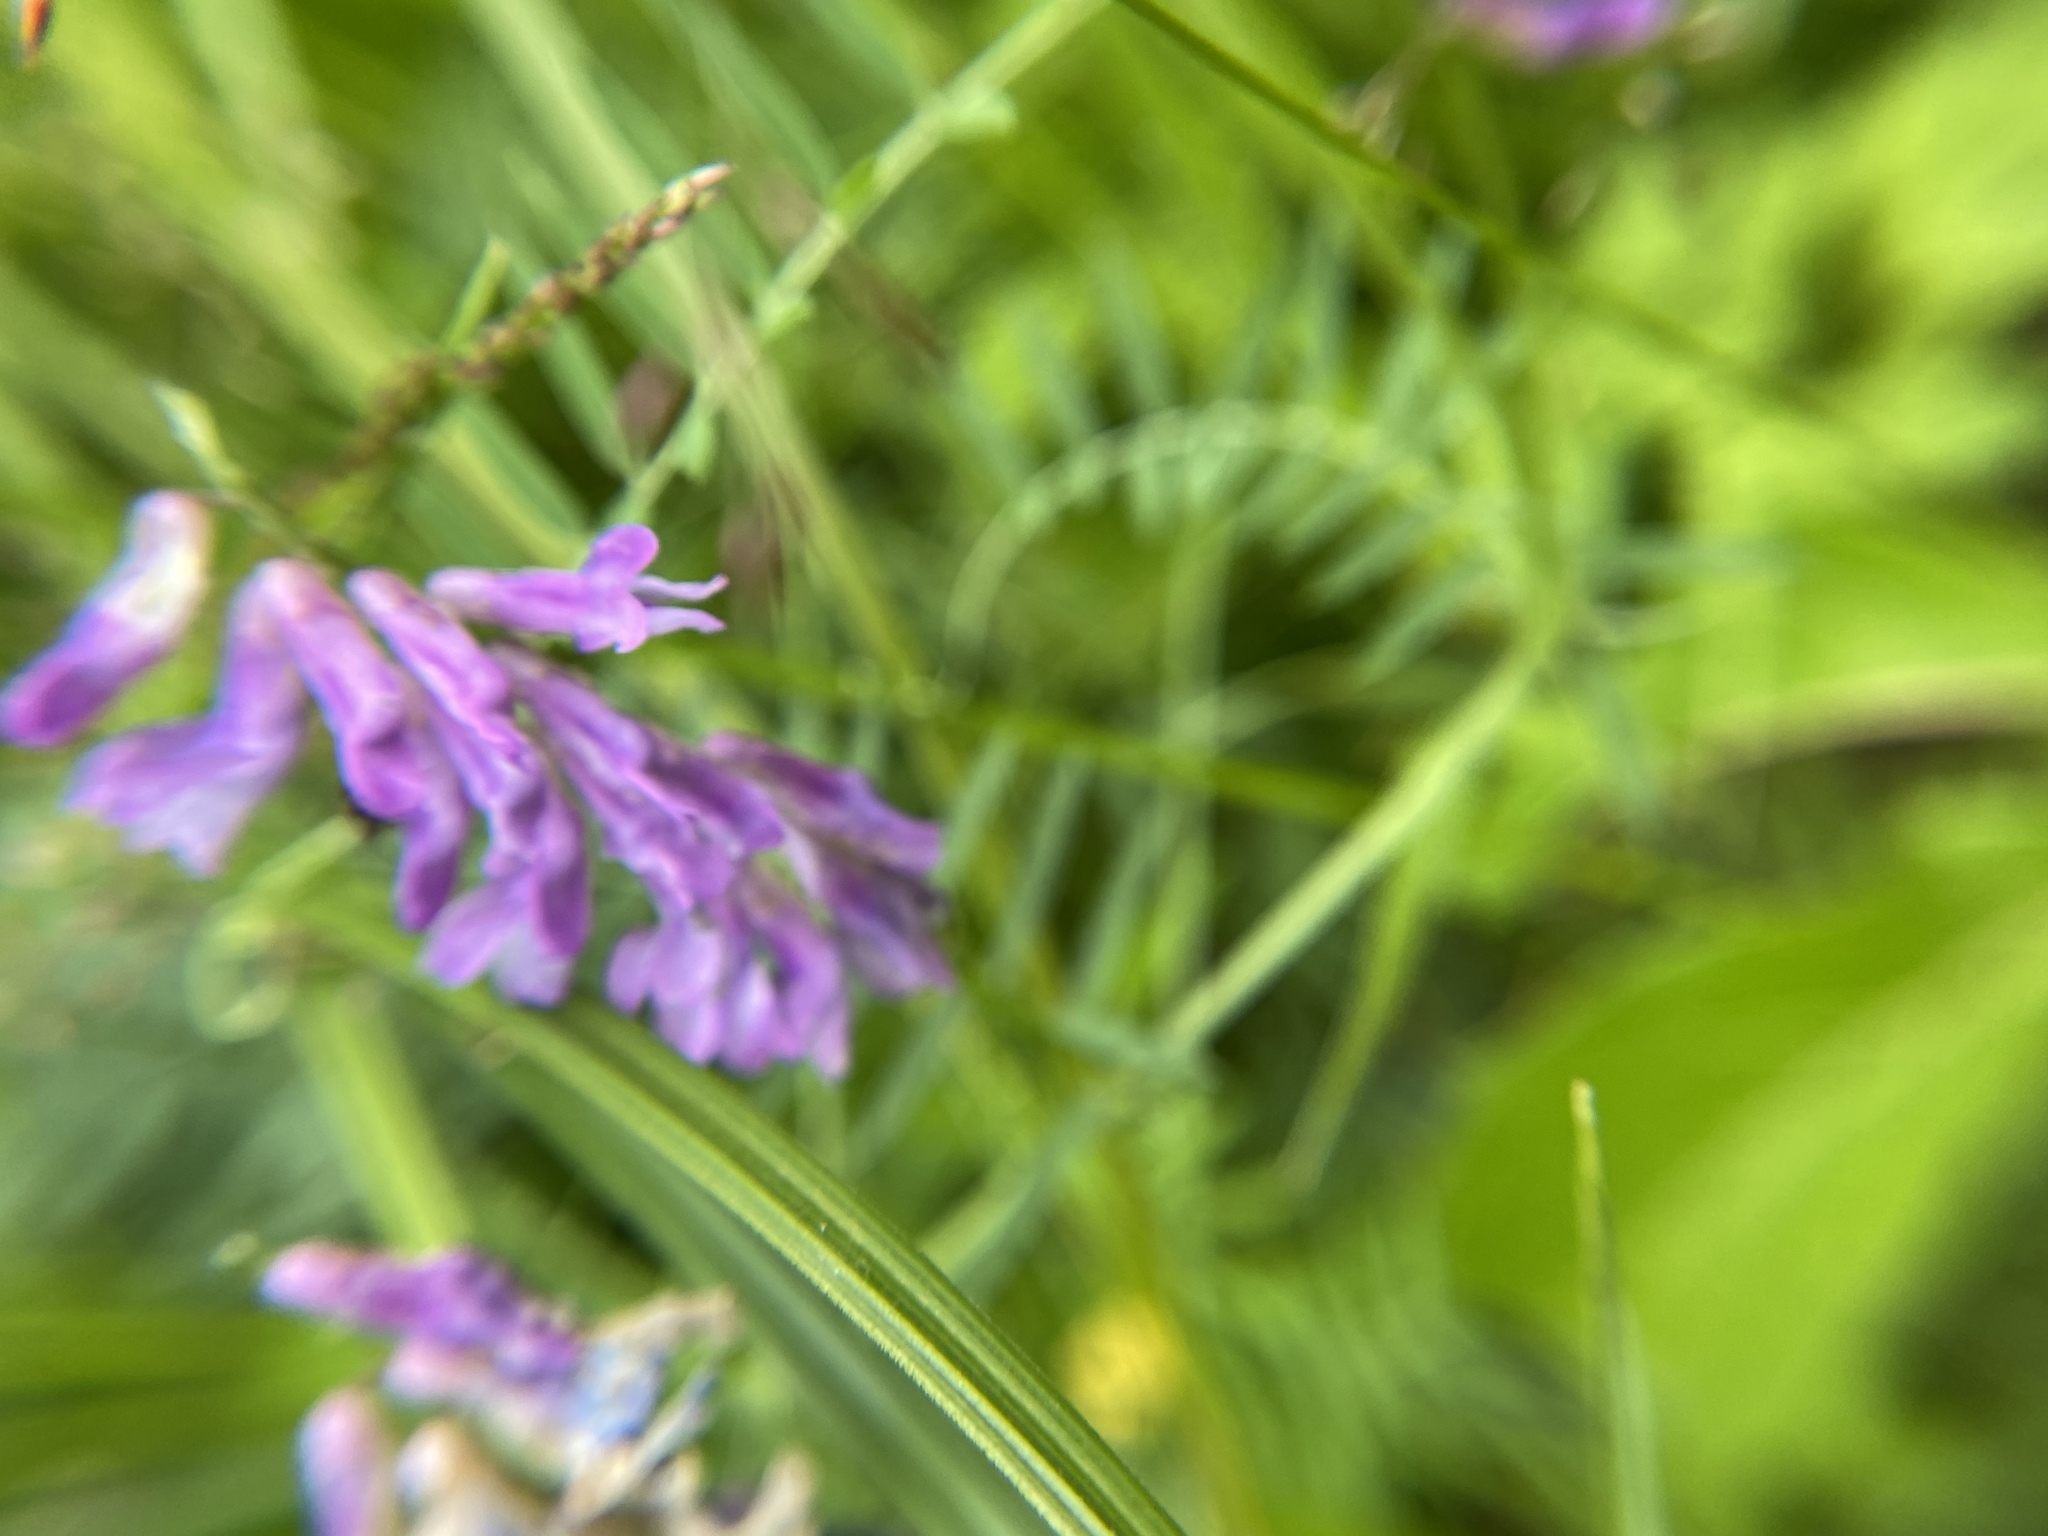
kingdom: Plantae
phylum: Tracheophyta
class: Magnoliopsida
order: Fabales
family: Fabaceae
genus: Vicia
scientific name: Vicia cracca
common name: Bird vetch
